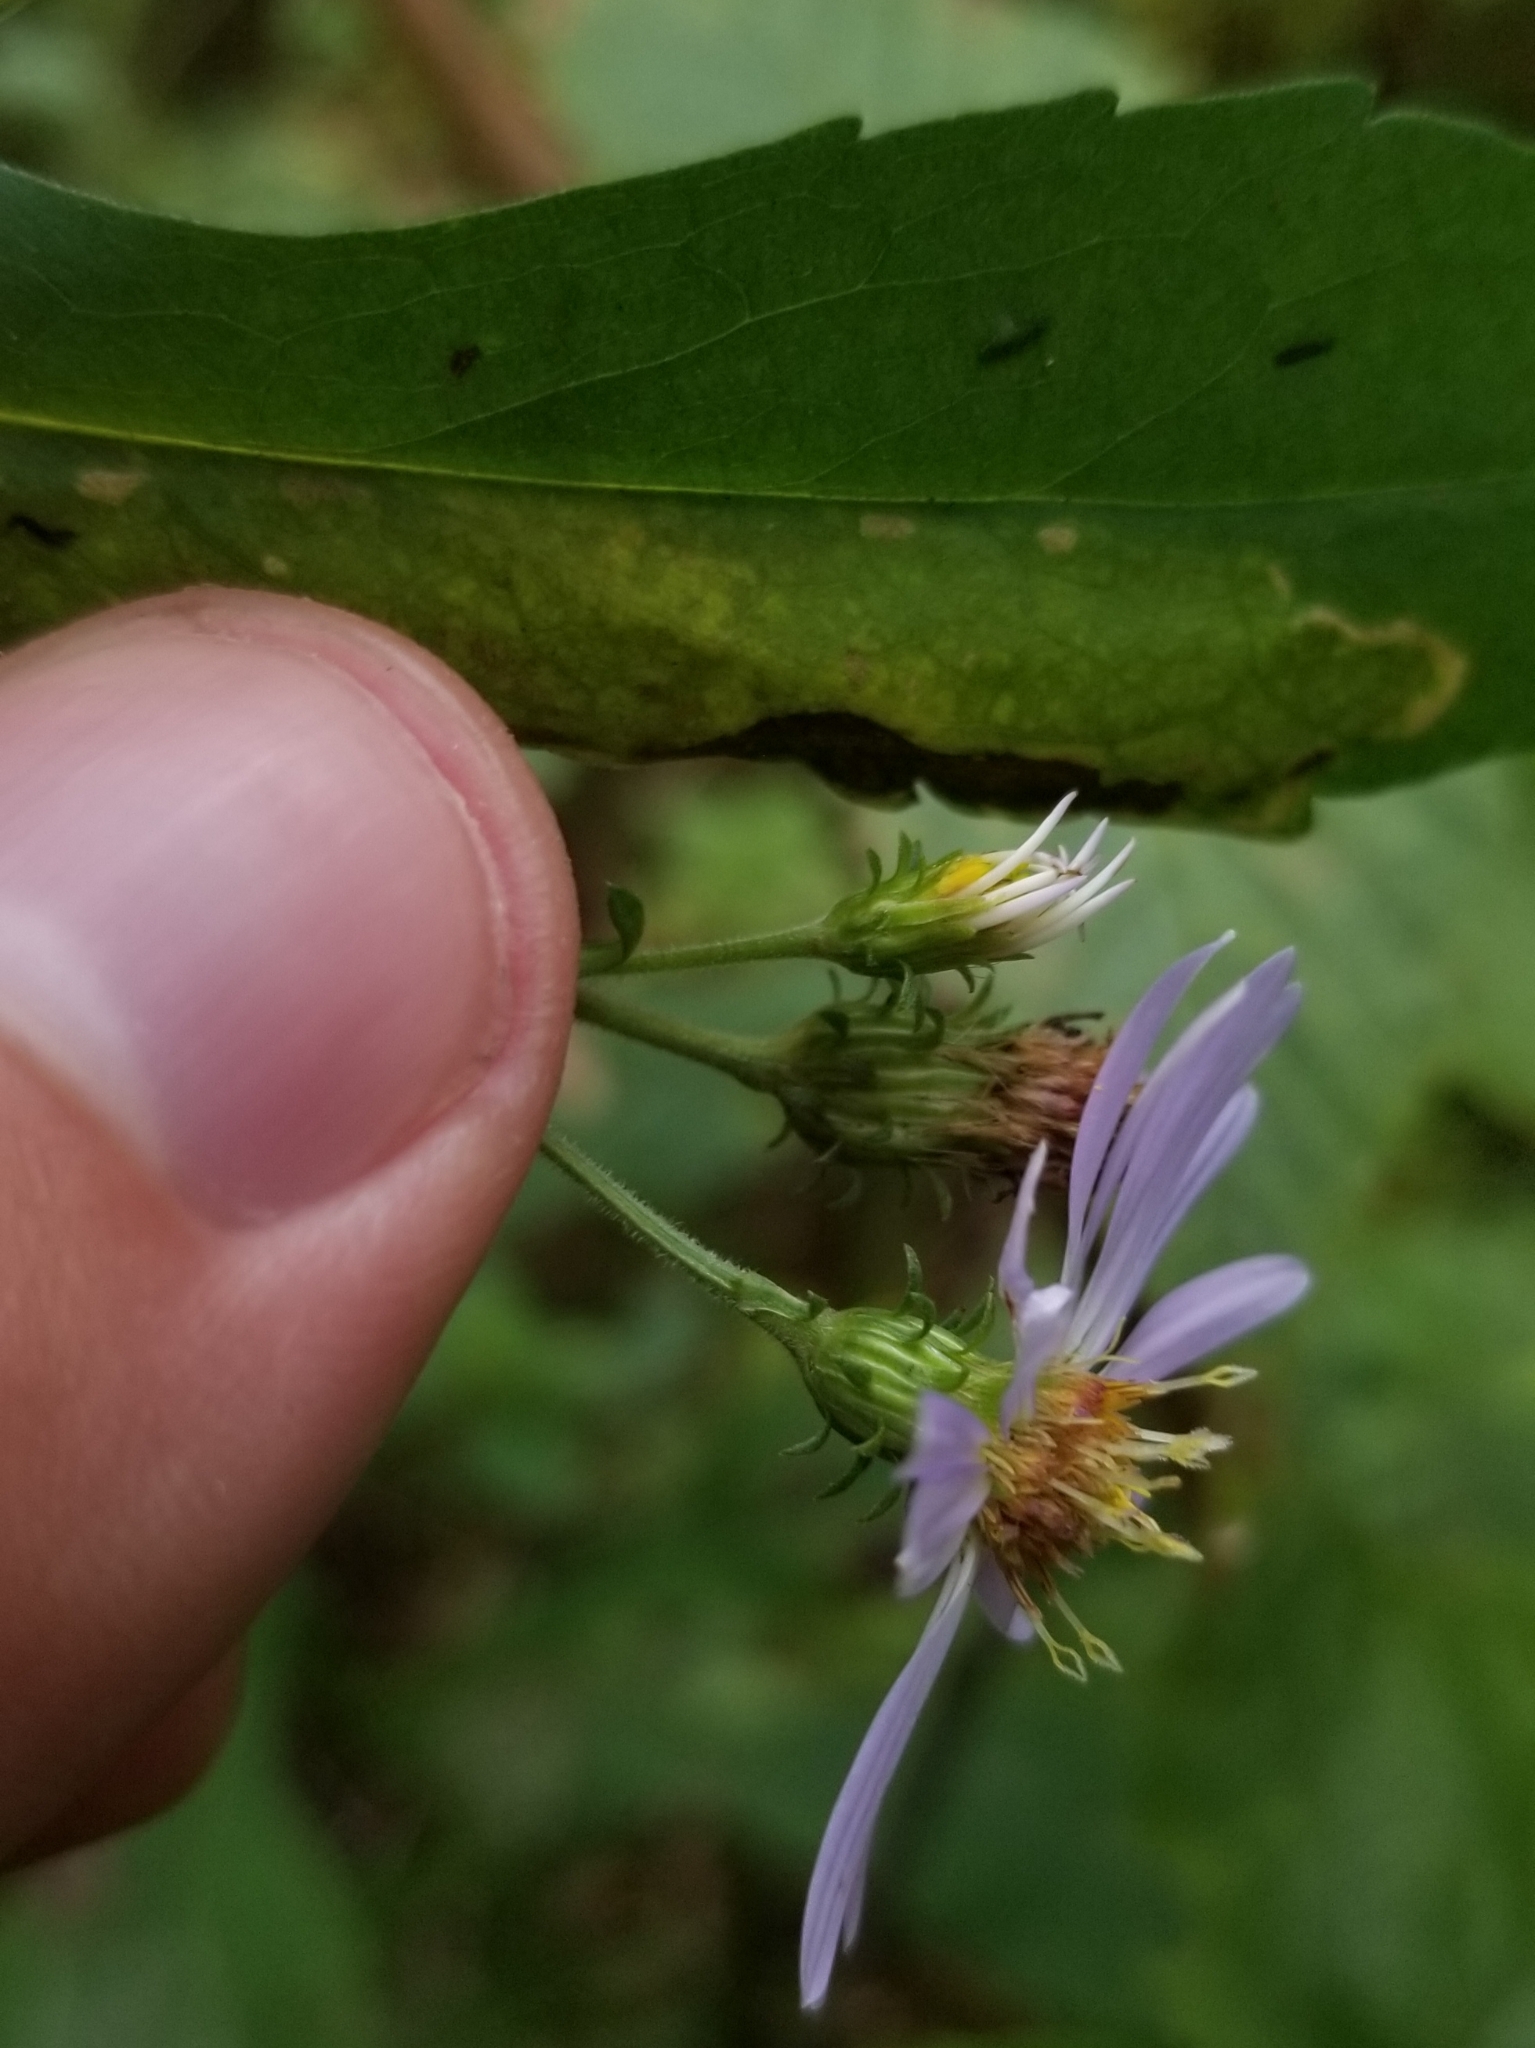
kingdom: Plantae
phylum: Tracheophyta
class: Magnoliopsida
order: Asterales
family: Asteraceae
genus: Symphyotrichum
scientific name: Symphyotrichum prenanthoides
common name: Crooked-stem aster
